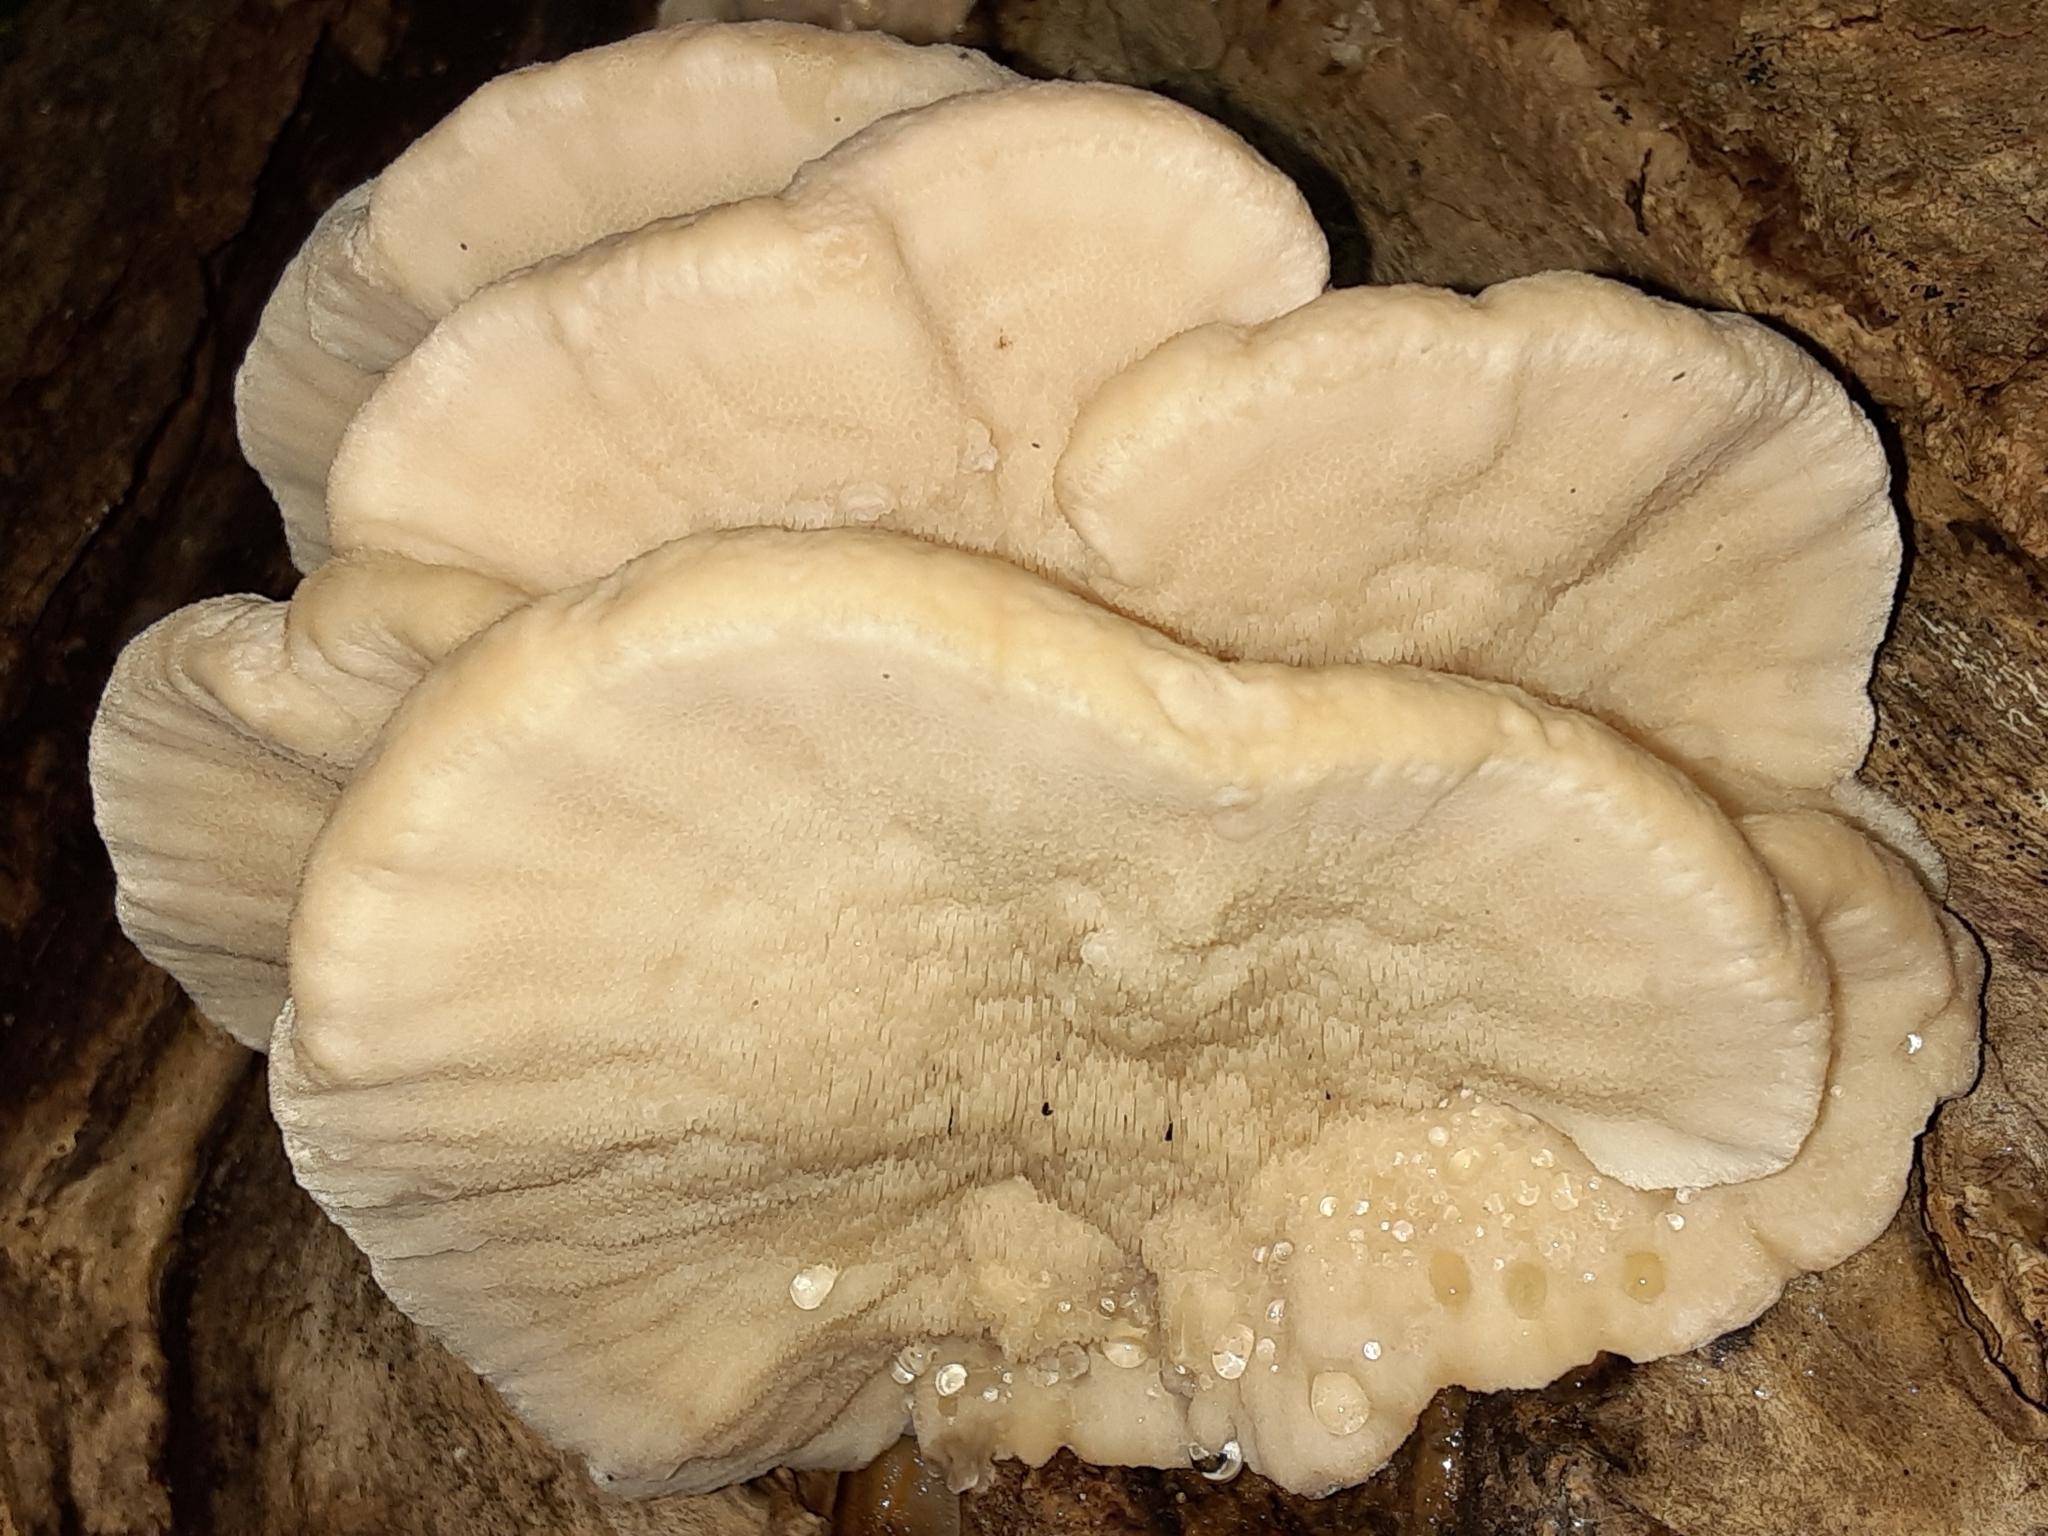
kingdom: Fungi
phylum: Basidiomycota
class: Agaricomycetes
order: Polyporales
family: Meruliaceae
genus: Climacodon
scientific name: Climacodon septentrionalis
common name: Northern tooth
